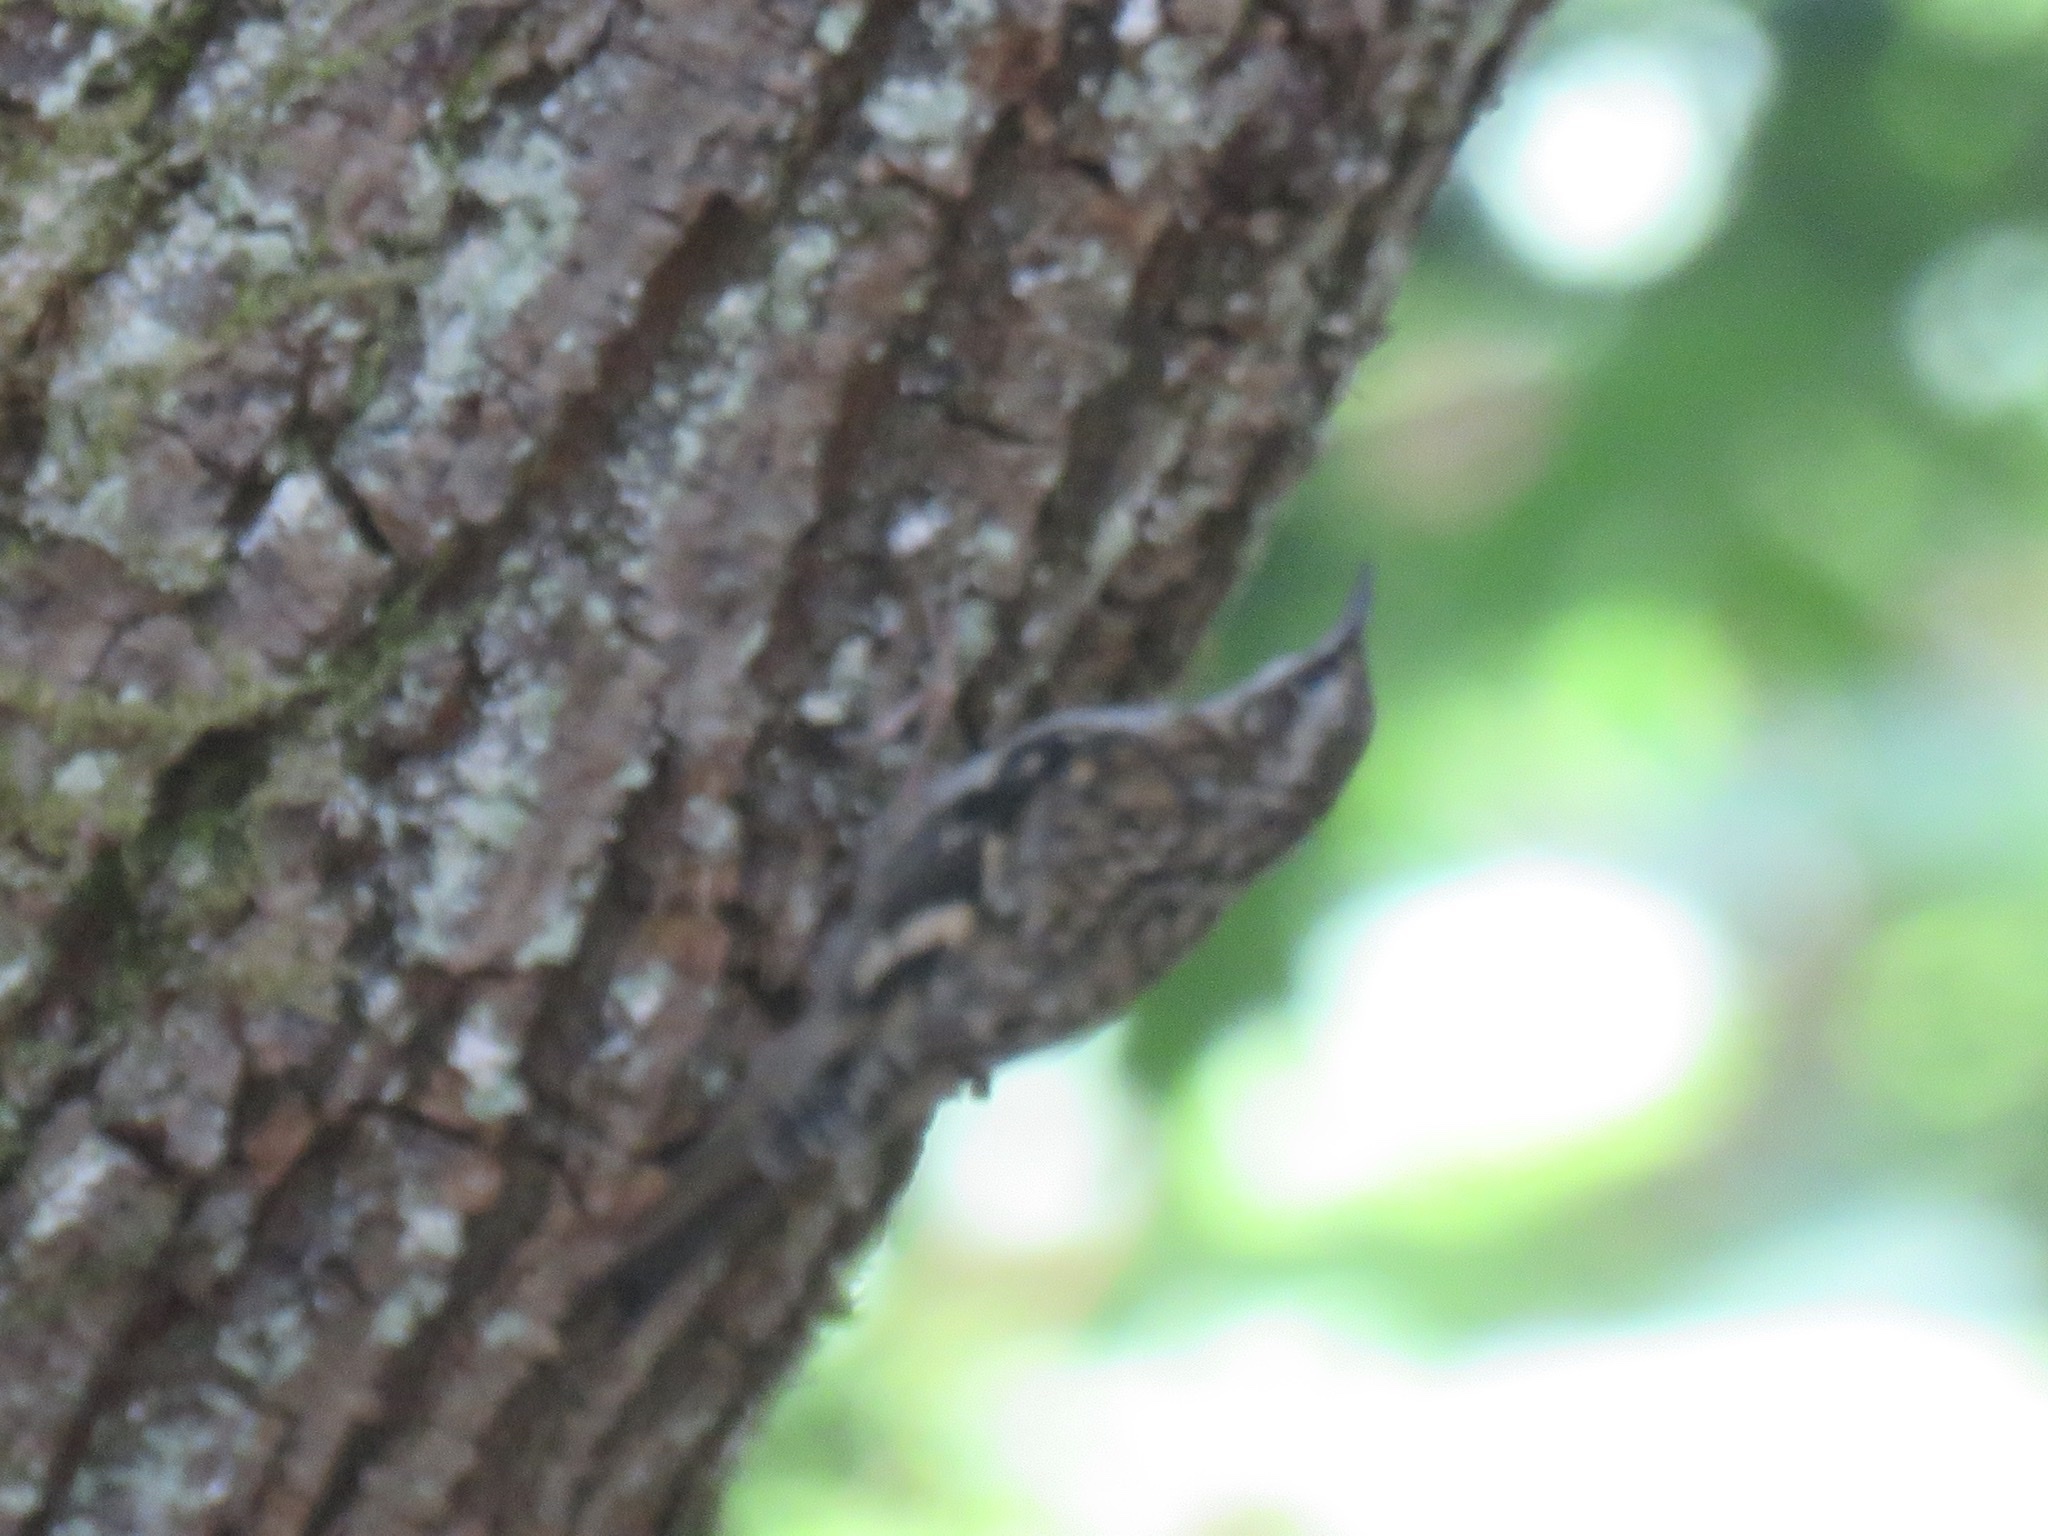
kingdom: Animalia
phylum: Chordata
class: Aves
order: Passeriformes
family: Certhiidae
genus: Certhia
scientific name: Certhia americana
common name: Brown creeper
